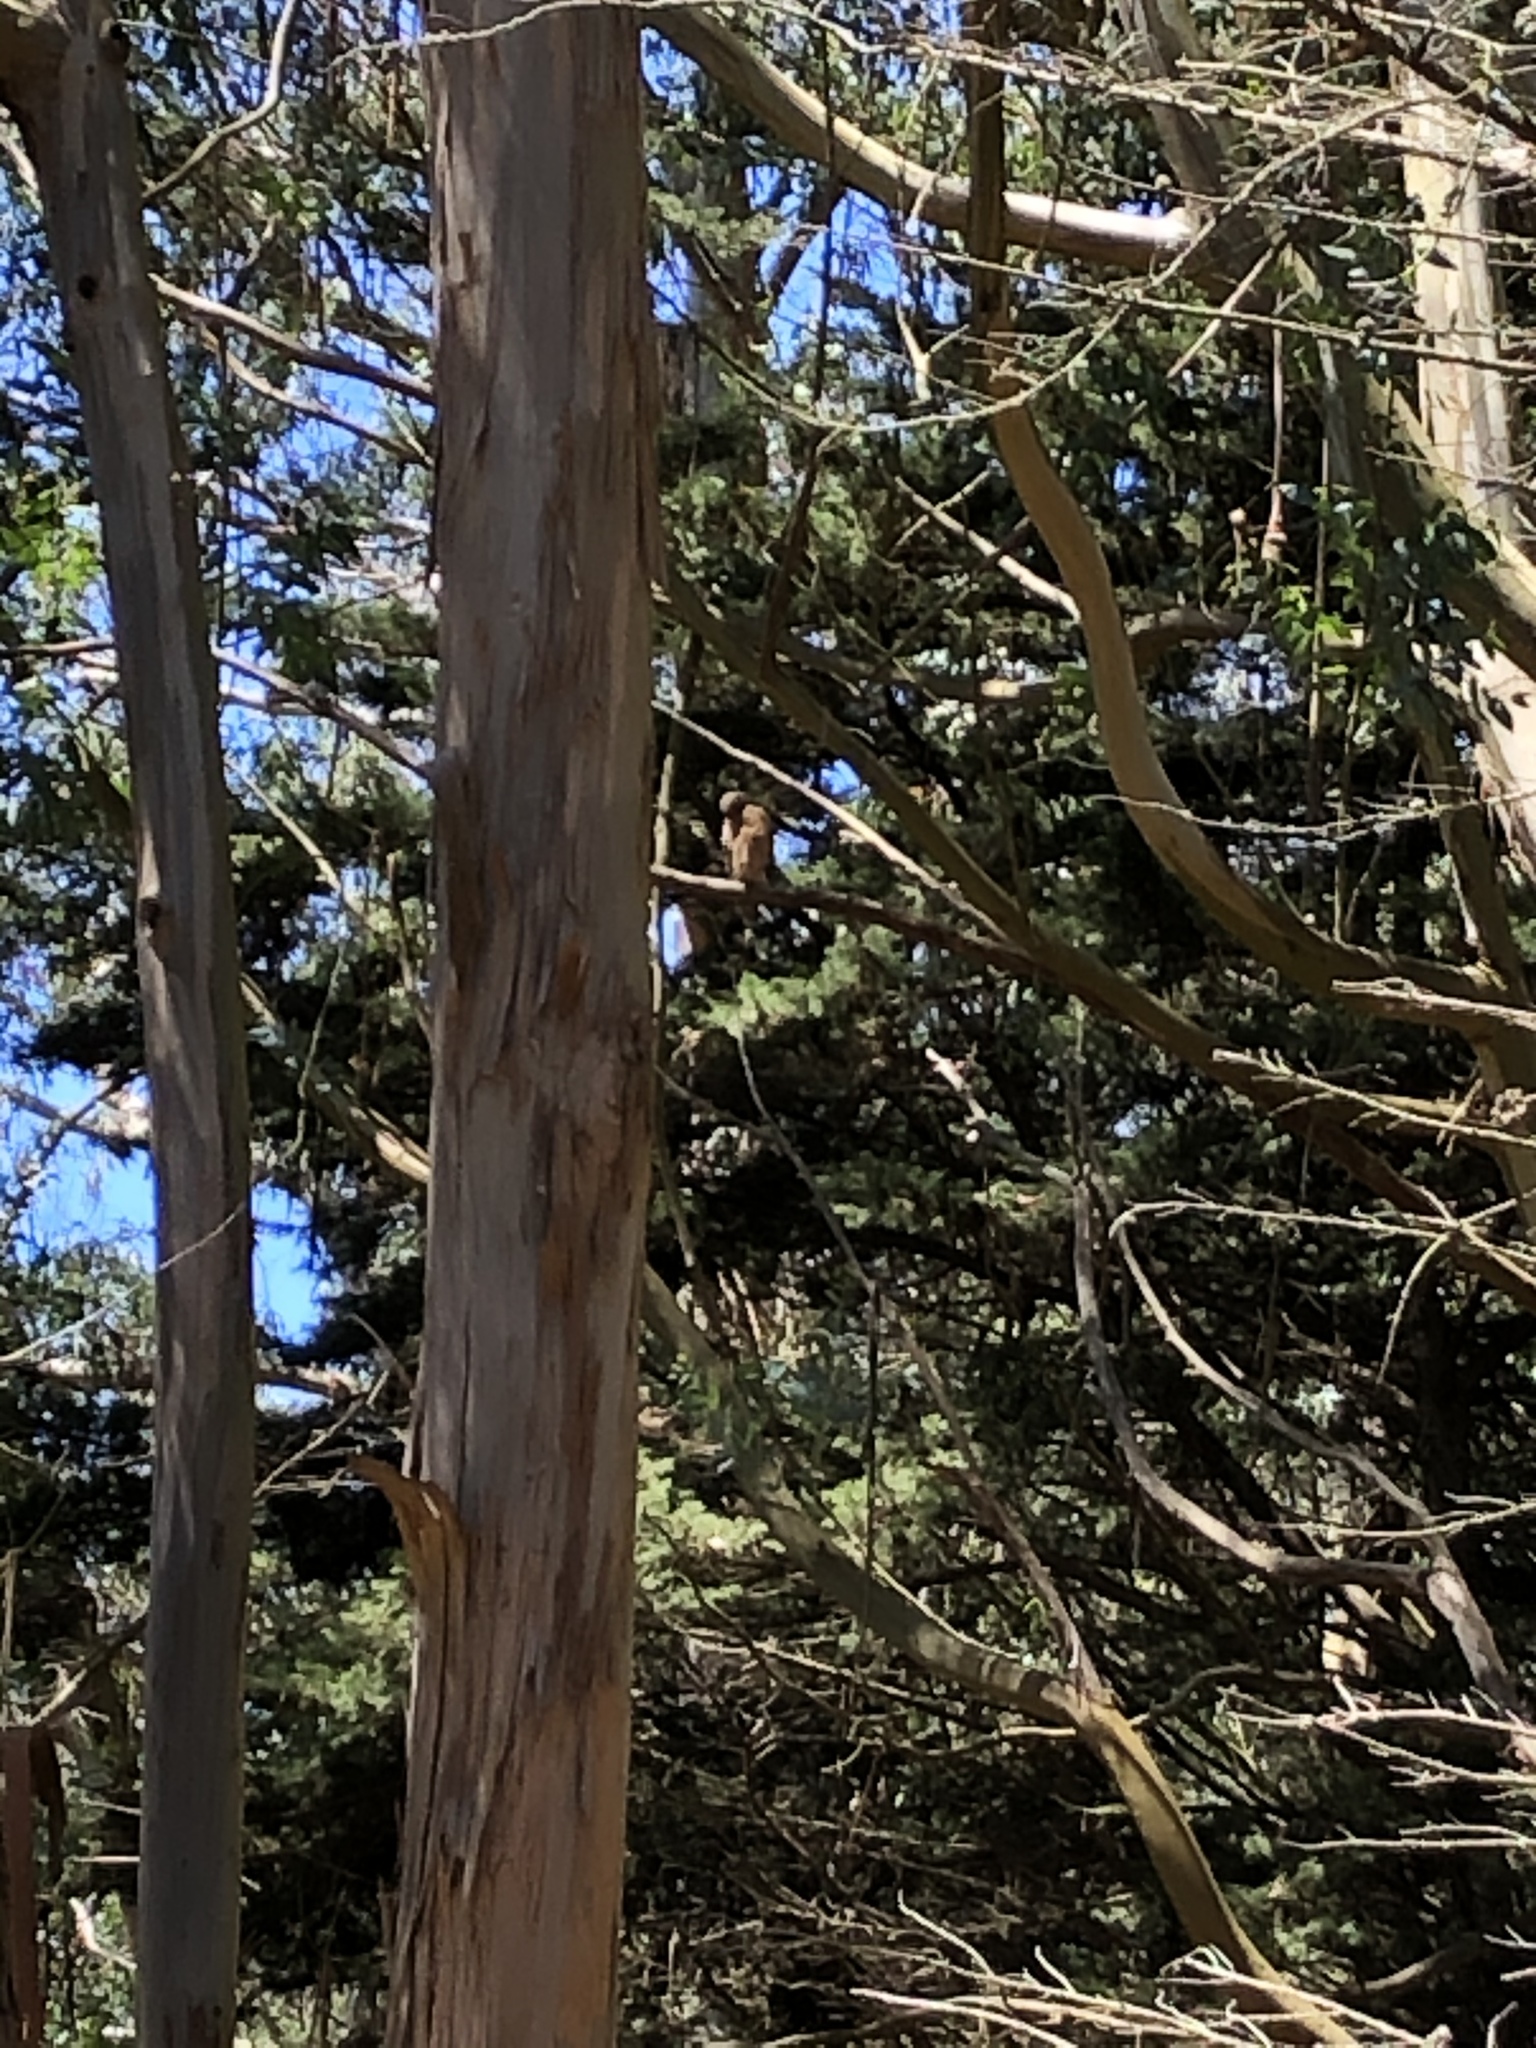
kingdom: Animalia
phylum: Chordata
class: Aves
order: Accipitriformes
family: Accipitridae
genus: Buteo
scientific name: Buteo lineatus
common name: Red-shouldered hawk
